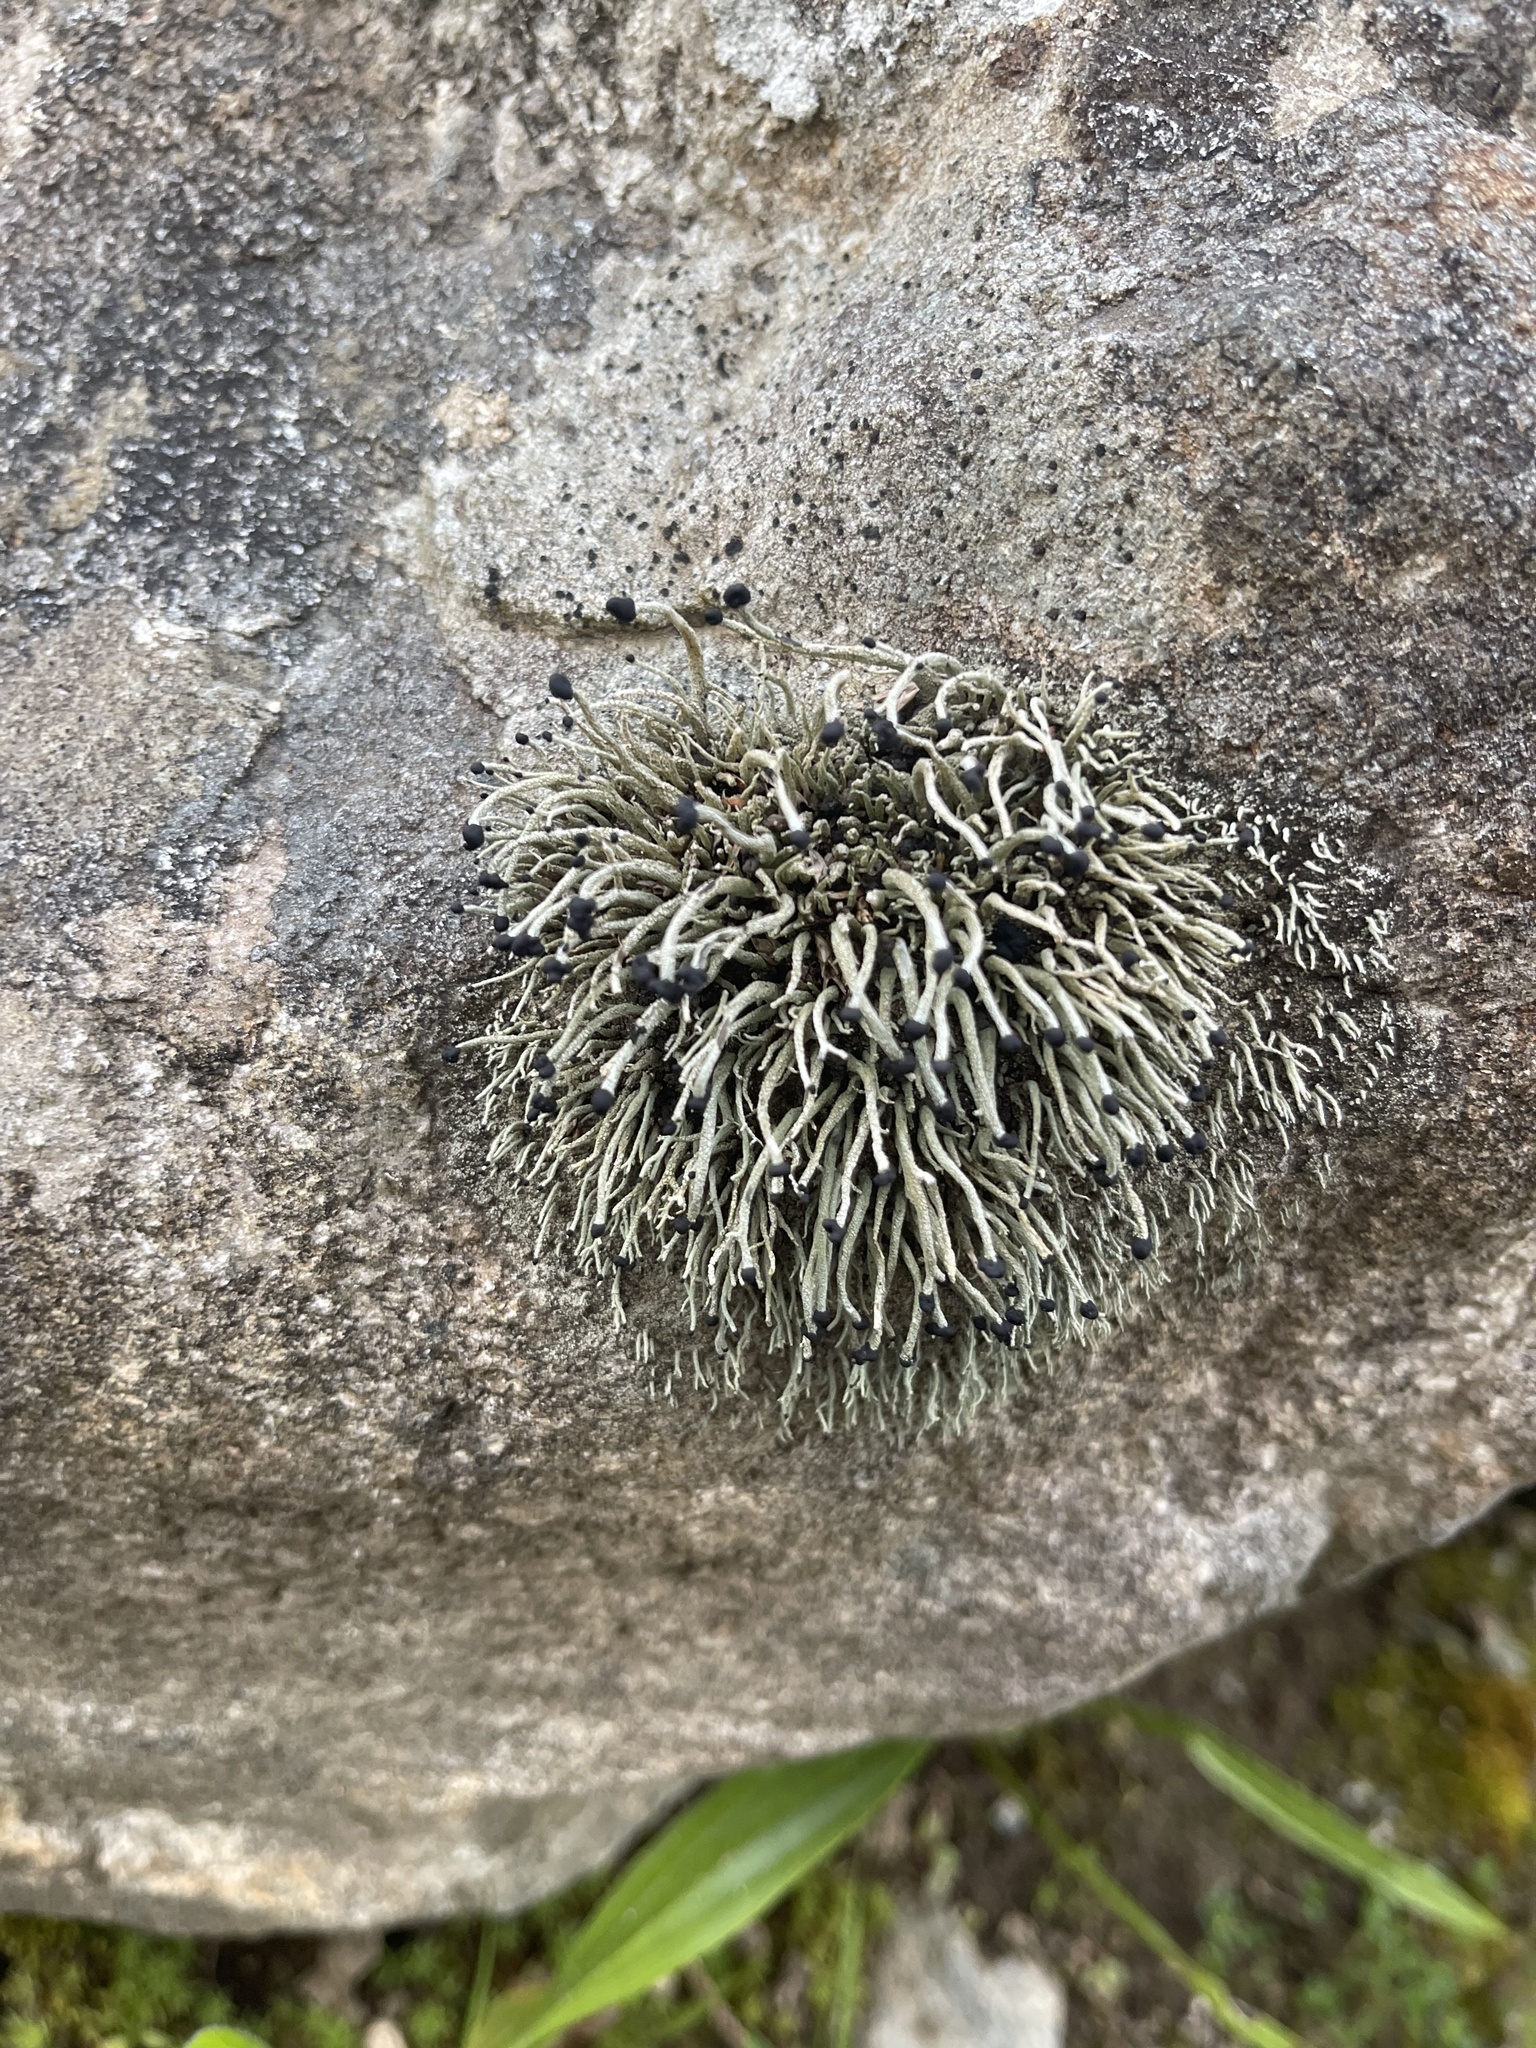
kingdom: Fungi
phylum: Ascomycota
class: Lecanoromycetes
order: Lecanorales
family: Cladoniaceae
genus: Pilophorus
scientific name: Pilophorus acicularis
